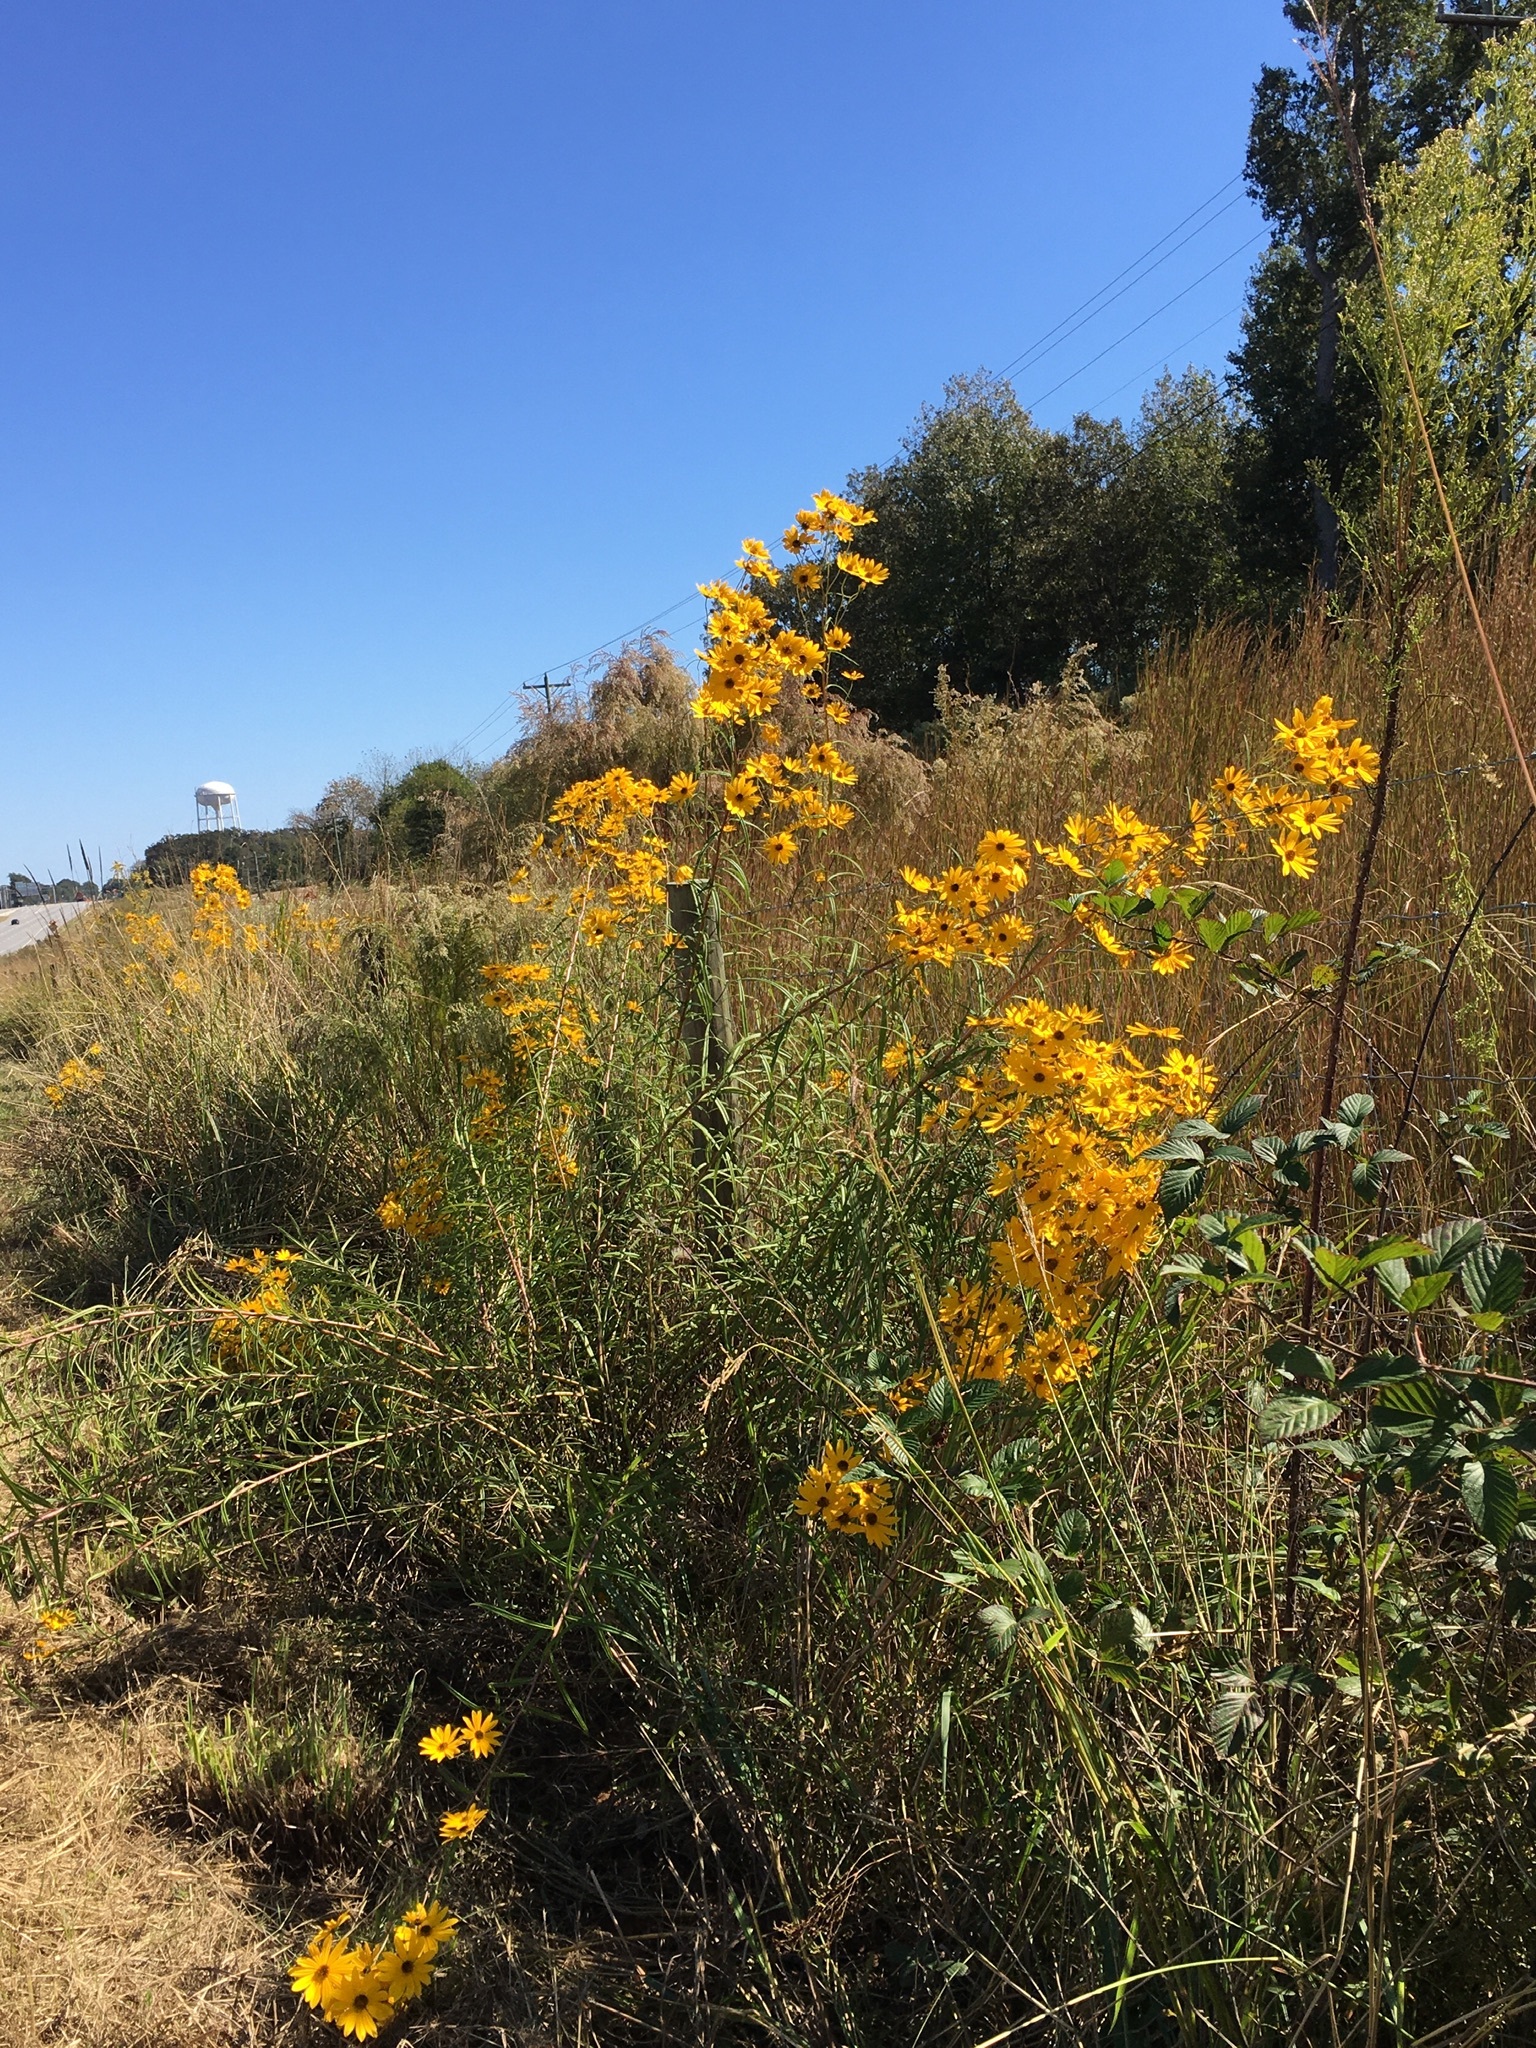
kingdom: Plantae
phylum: Tracheophyta
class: Magnoliopsida
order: Asterales
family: Asteraceae
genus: Helianthus
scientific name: Helianthus angustifolius
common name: Swamp sunflower
